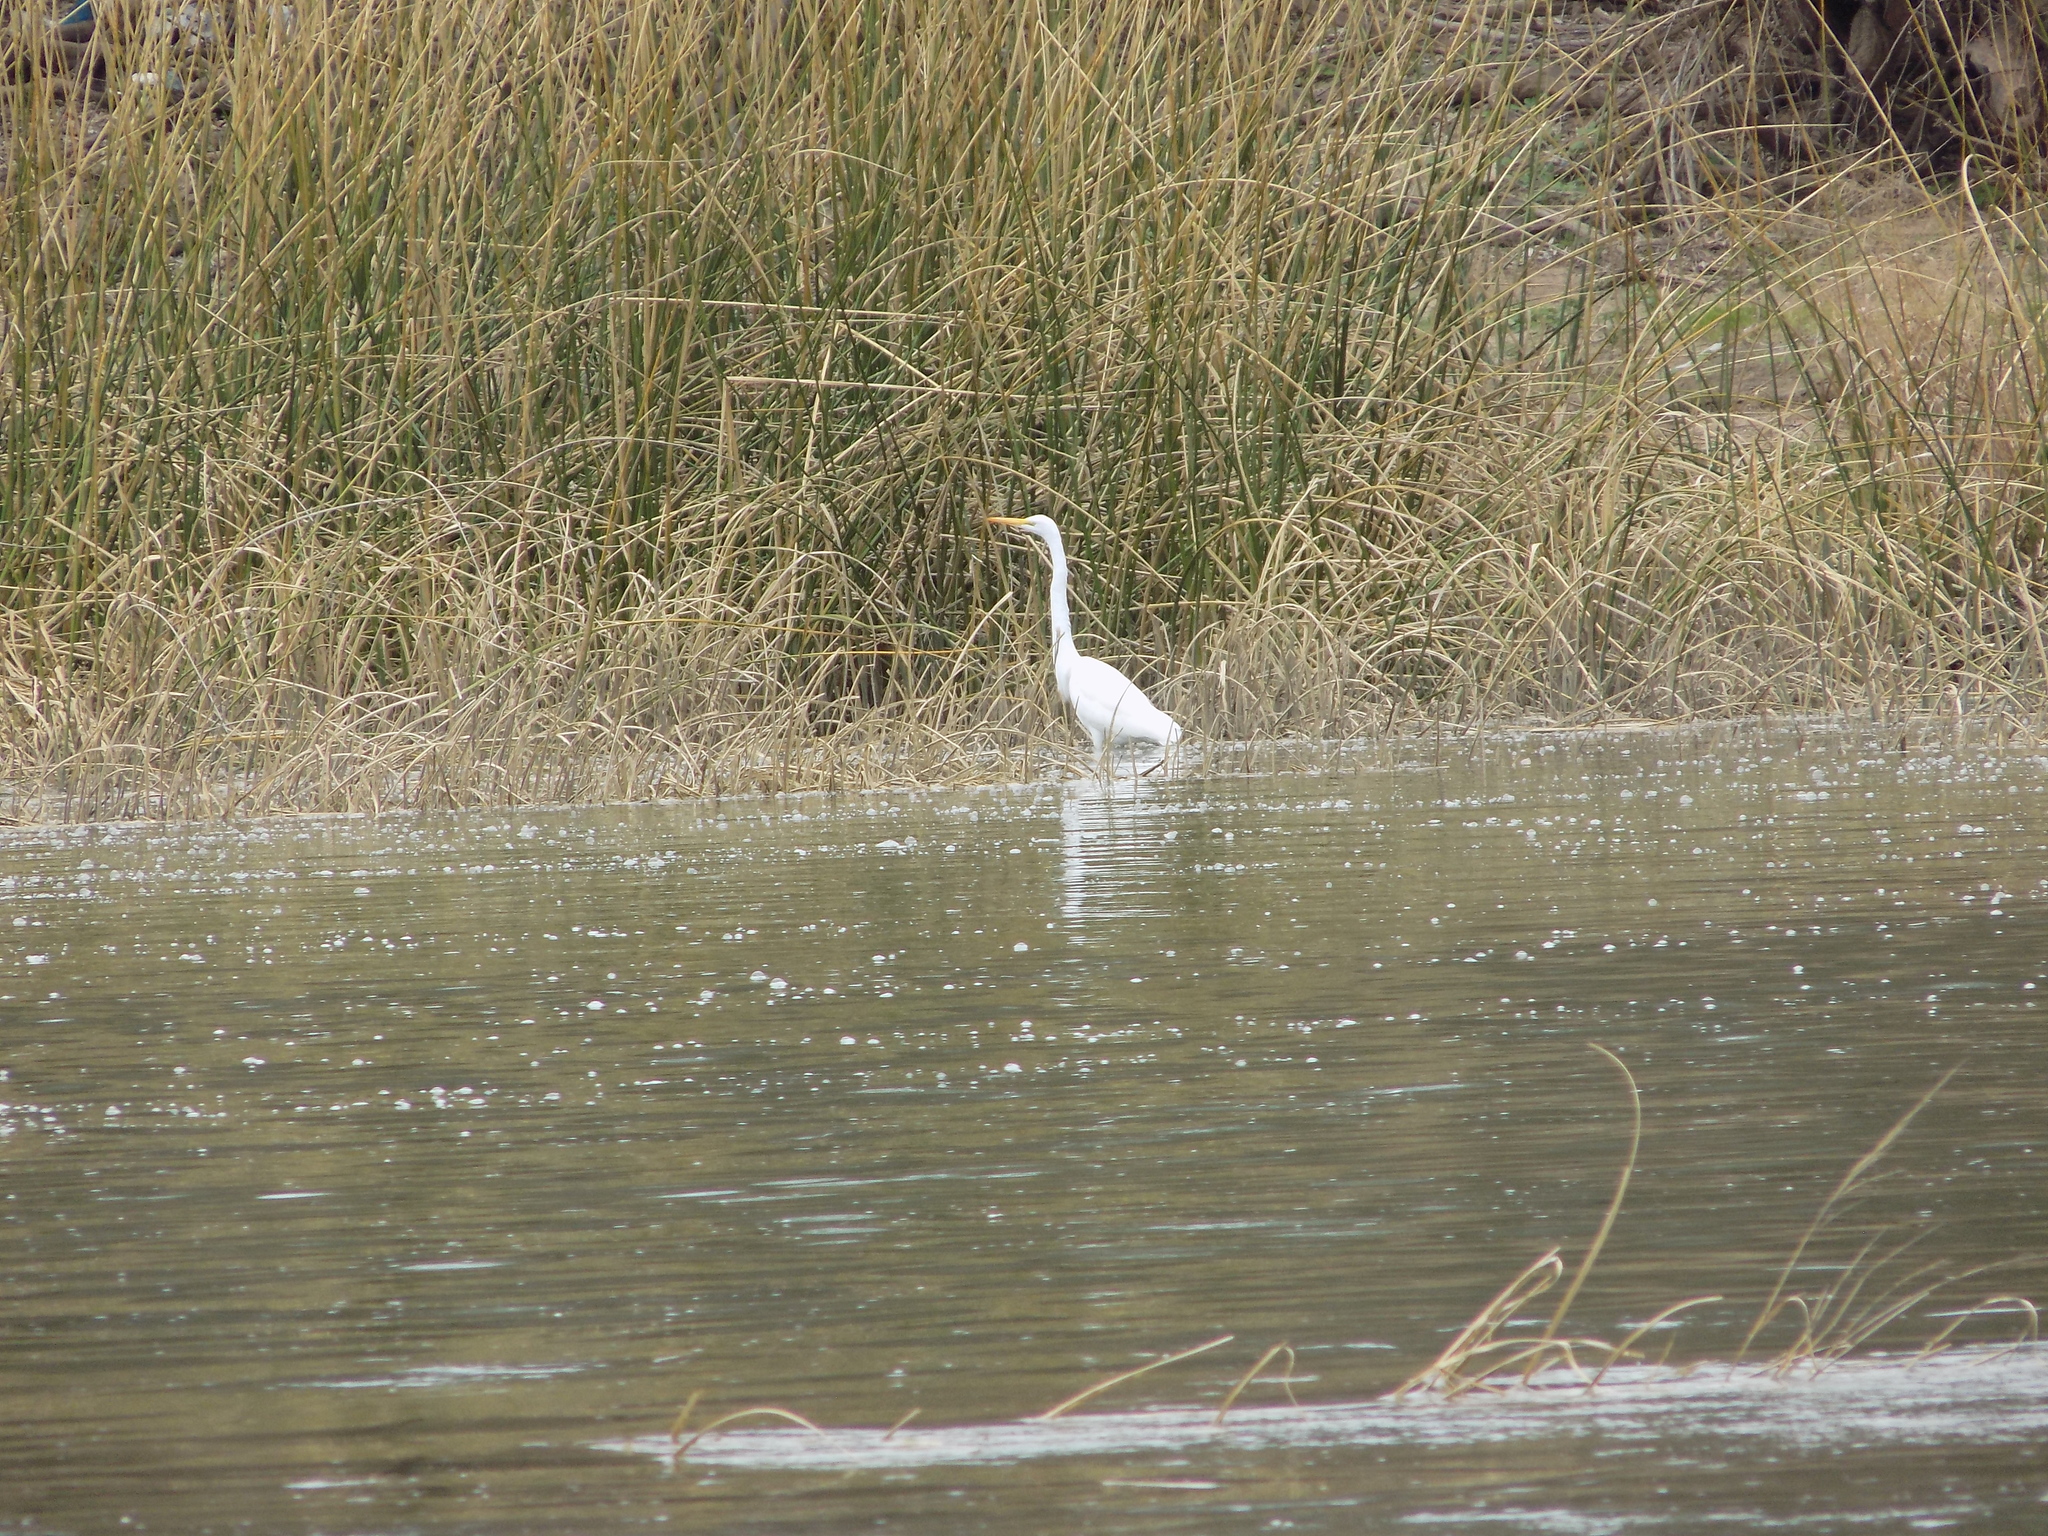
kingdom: Animalia
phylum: Chordata
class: Aves
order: Pelecaniformes
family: Ardeidae
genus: Ardea
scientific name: Ardea alba
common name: Great egret
